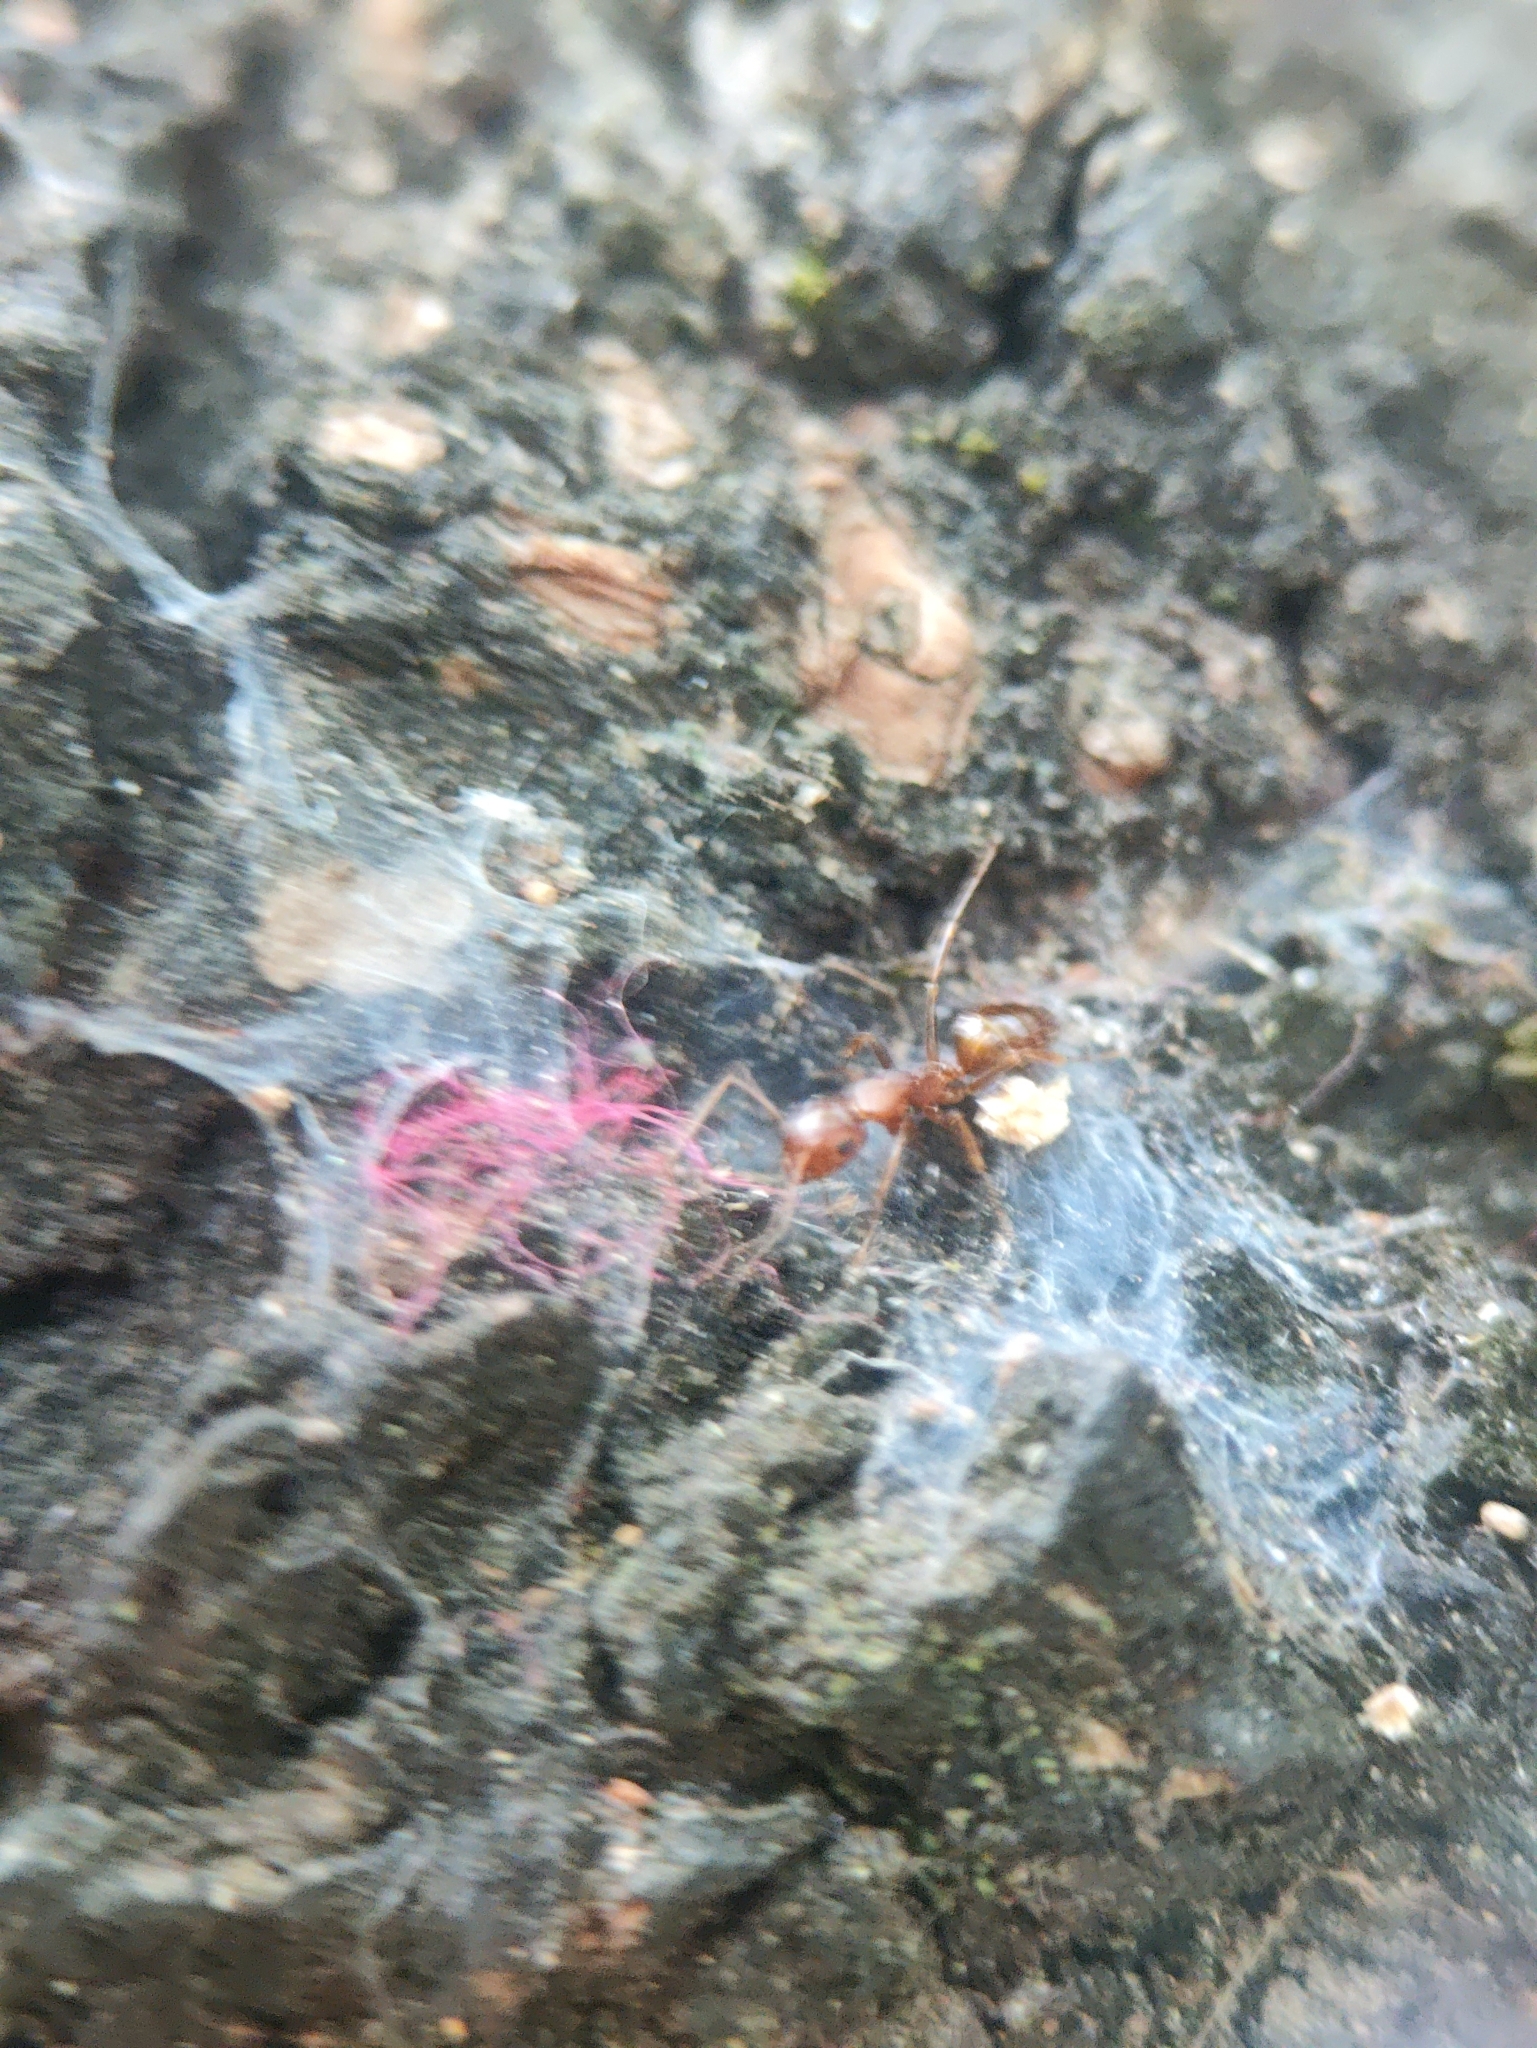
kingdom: Animalia
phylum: Arthropoda
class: Insecta
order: Hymenoptera
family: Formicidae
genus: Camponotus
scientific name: Camponotus nirvanae
